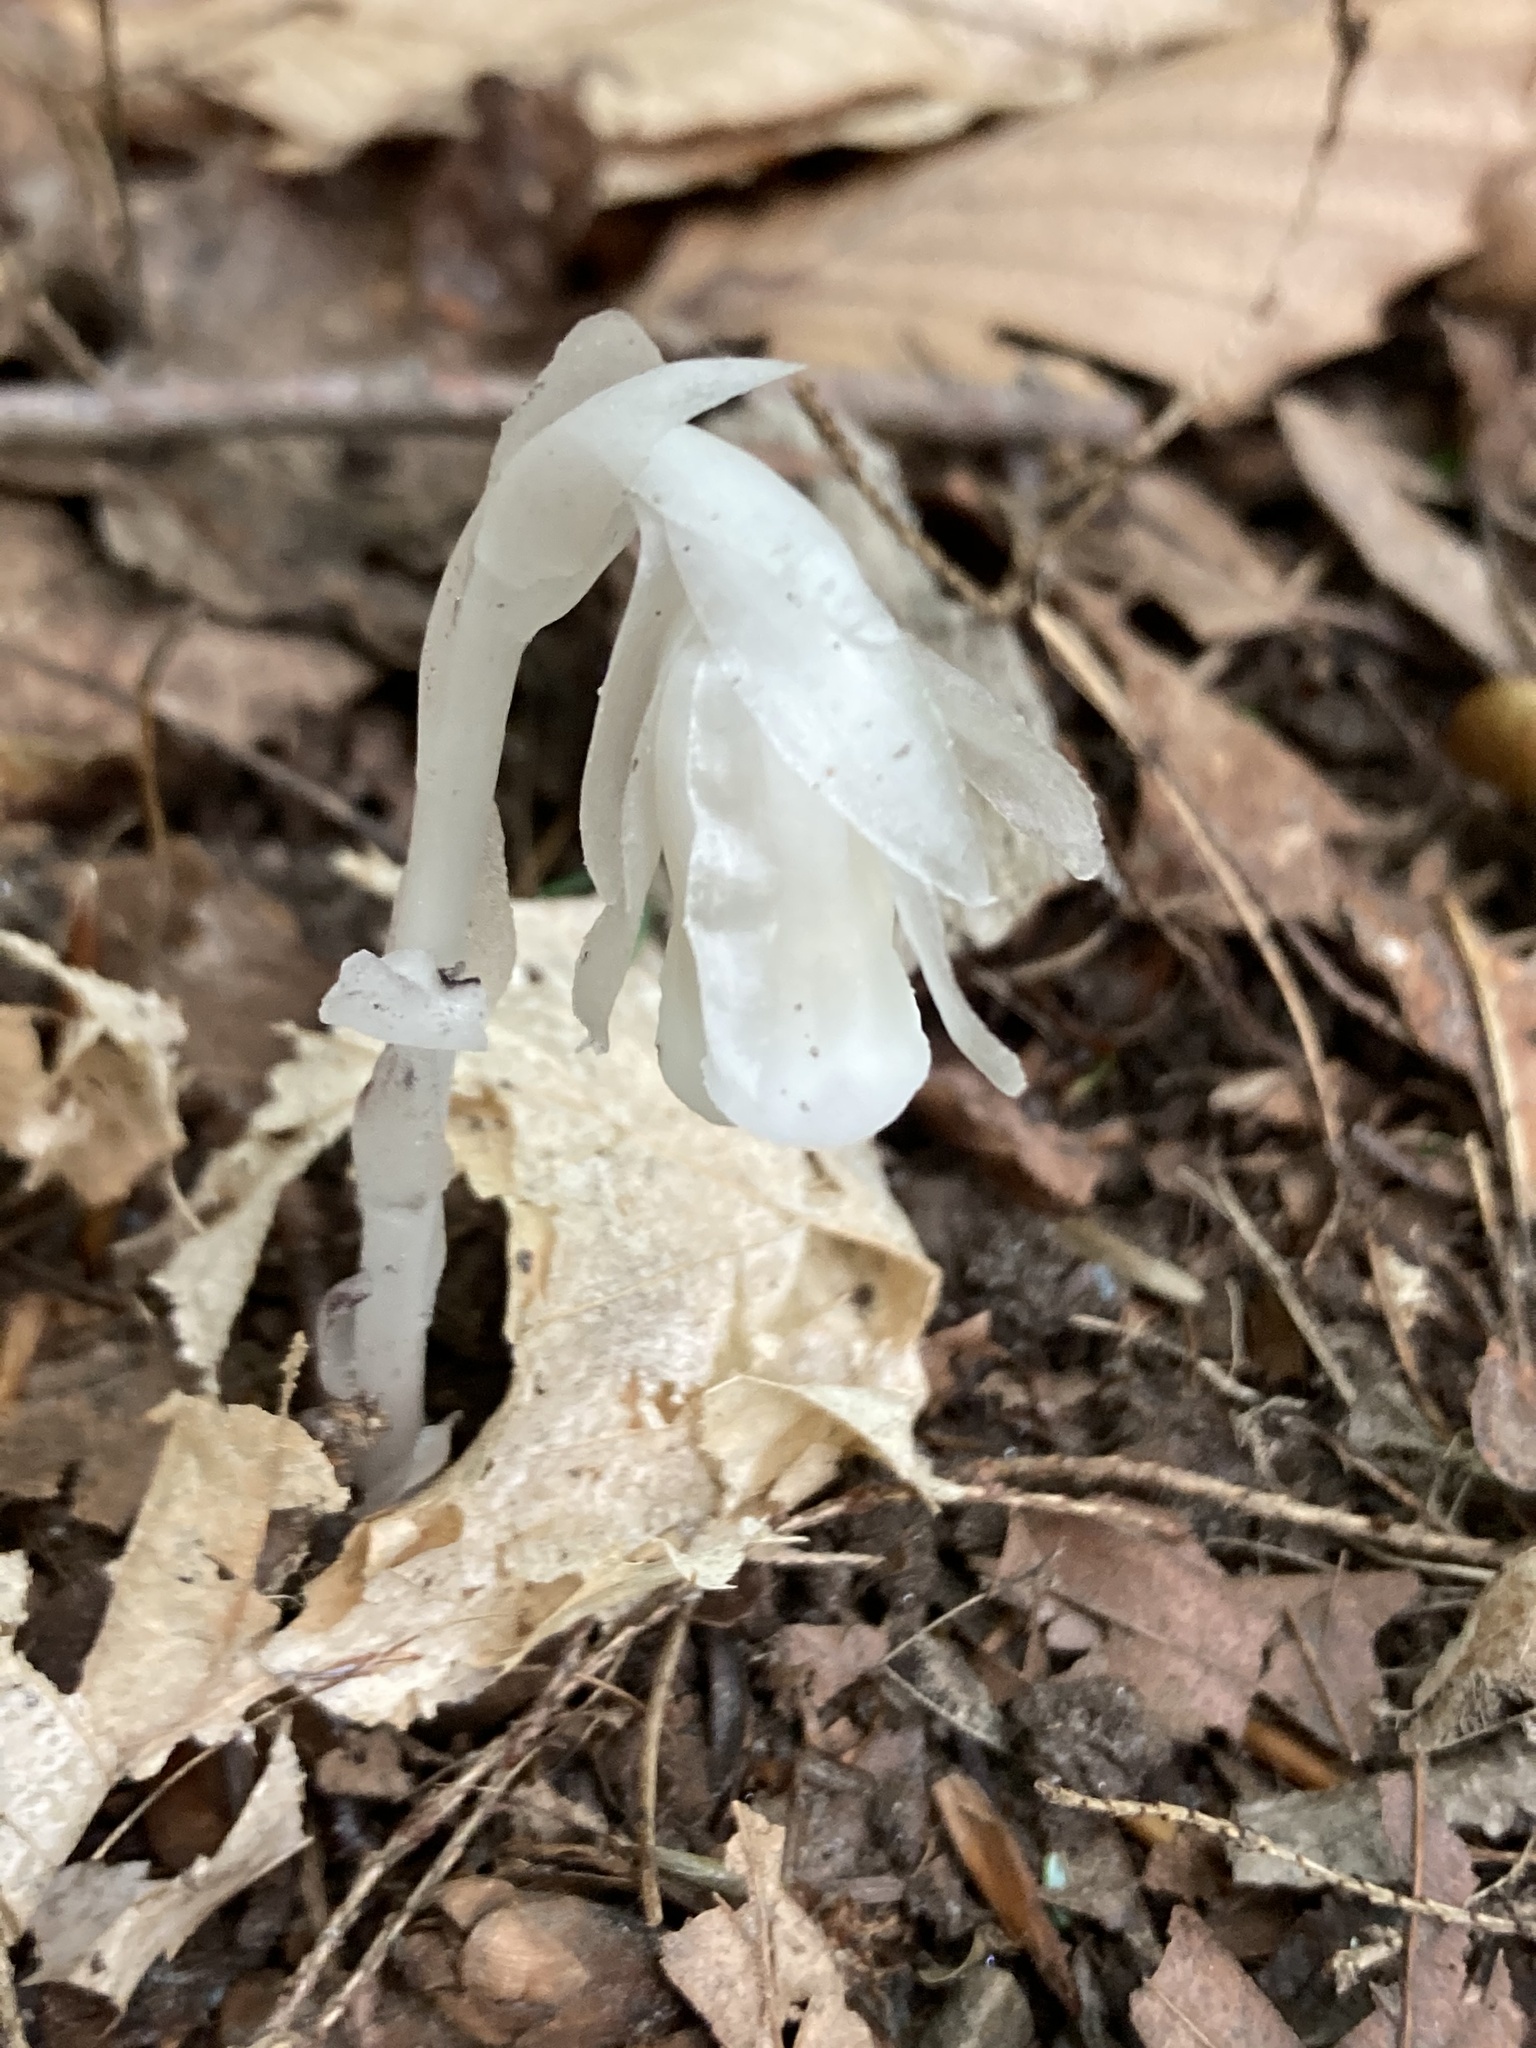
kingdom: Plantae
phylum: Tracheophyta
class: Magnoliopsida
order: Ericales
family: Ericaceae
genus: Monotropa
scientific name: Monotropa uniflora
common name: Convulsion root
